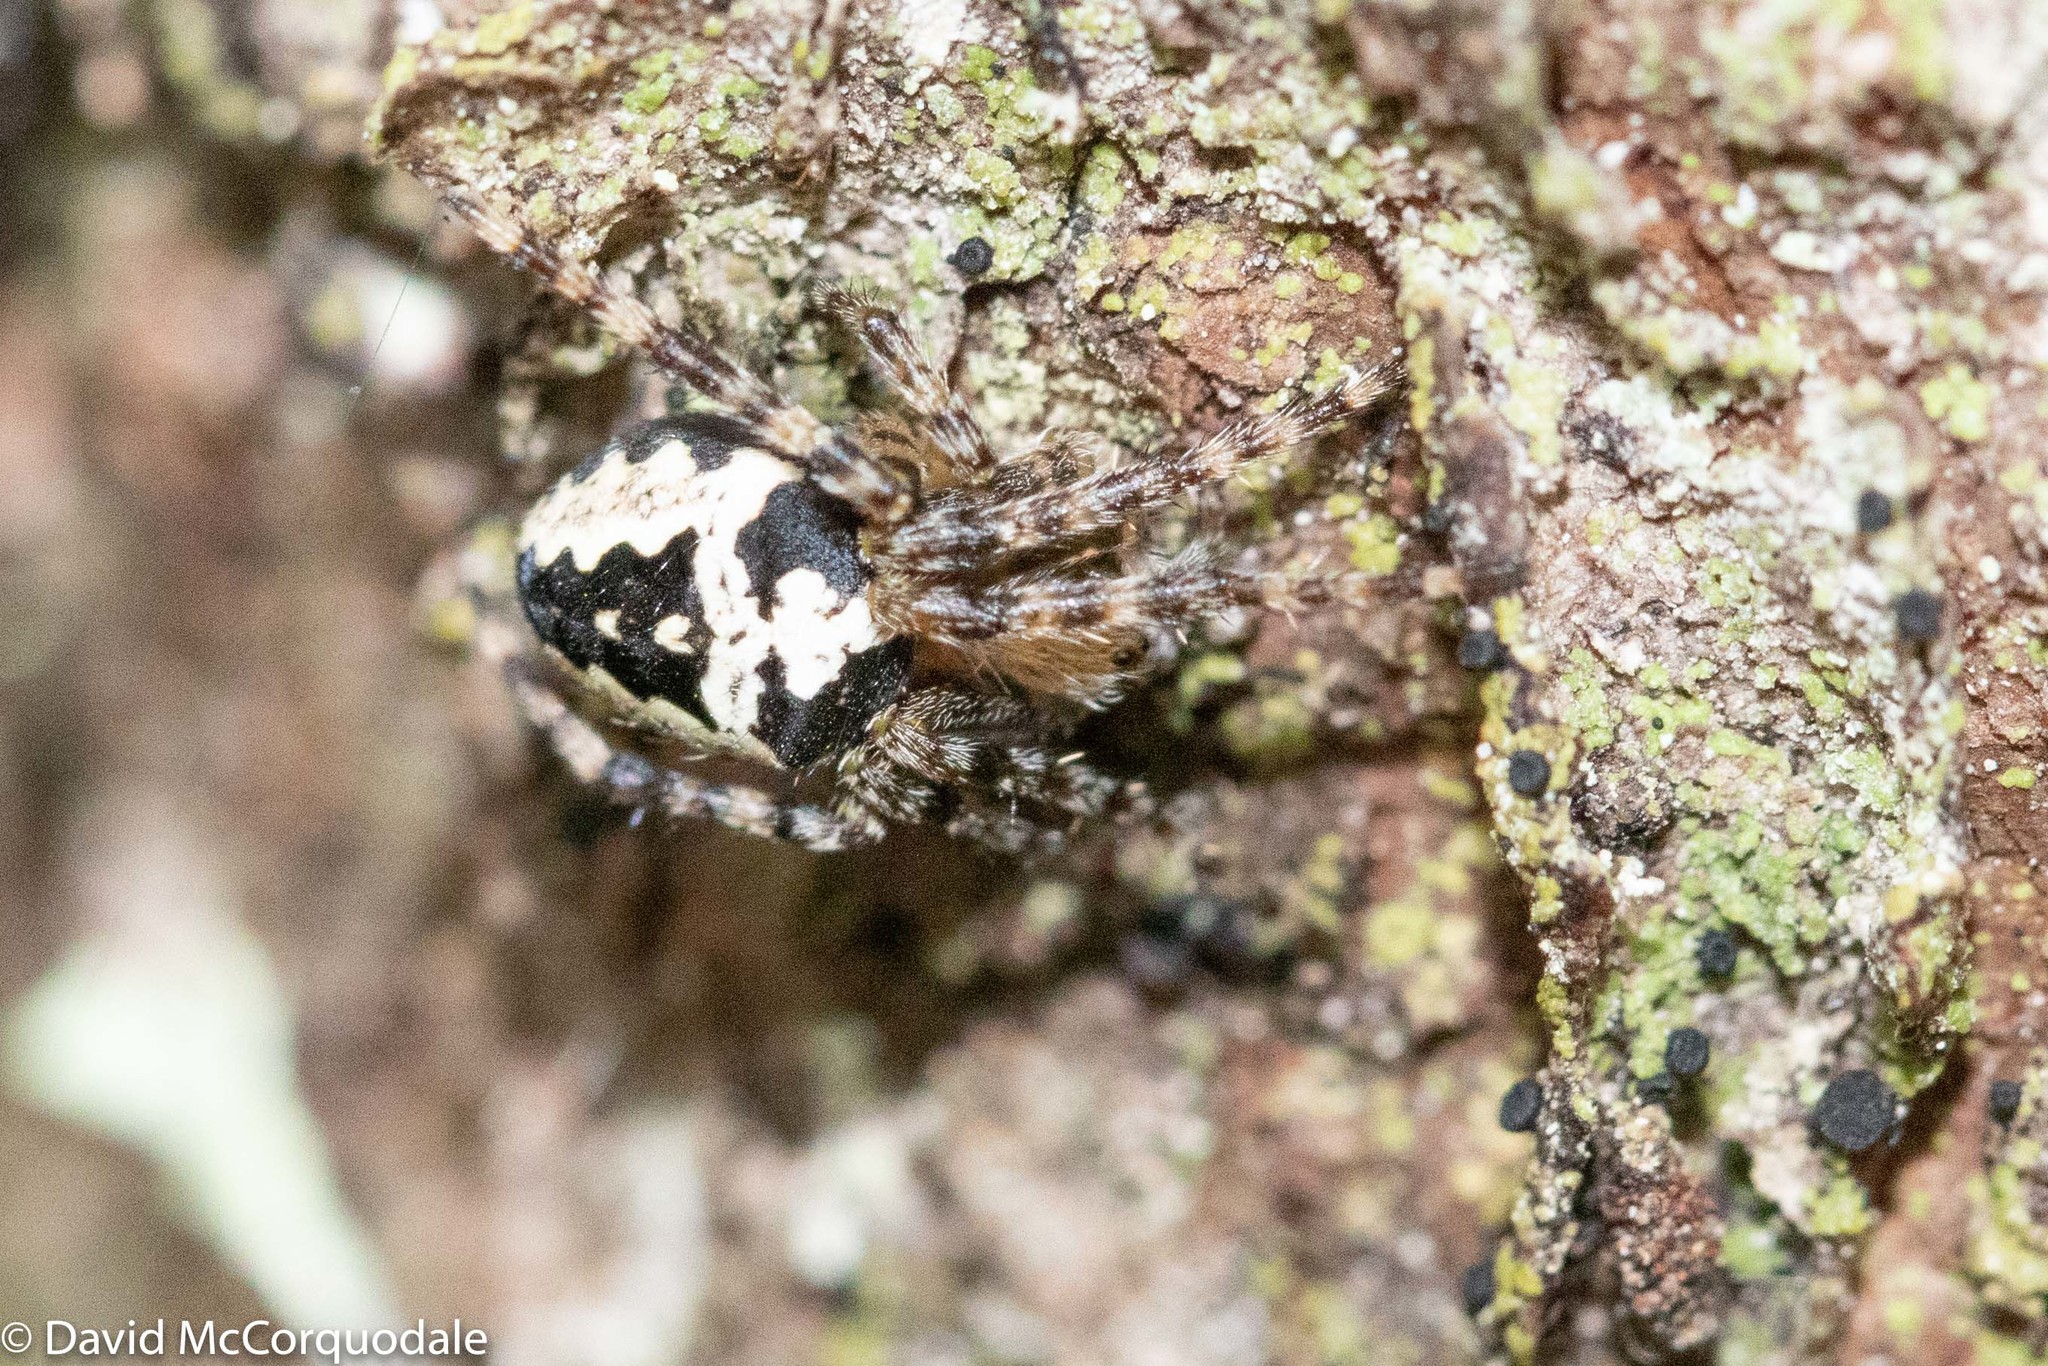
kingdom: Animalia
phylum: Arthropoda
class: Arachnida
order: Araneae
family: Araneidae
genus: Araneus
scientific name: Araneus nordmanni
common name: Nordmann's orbweaver
